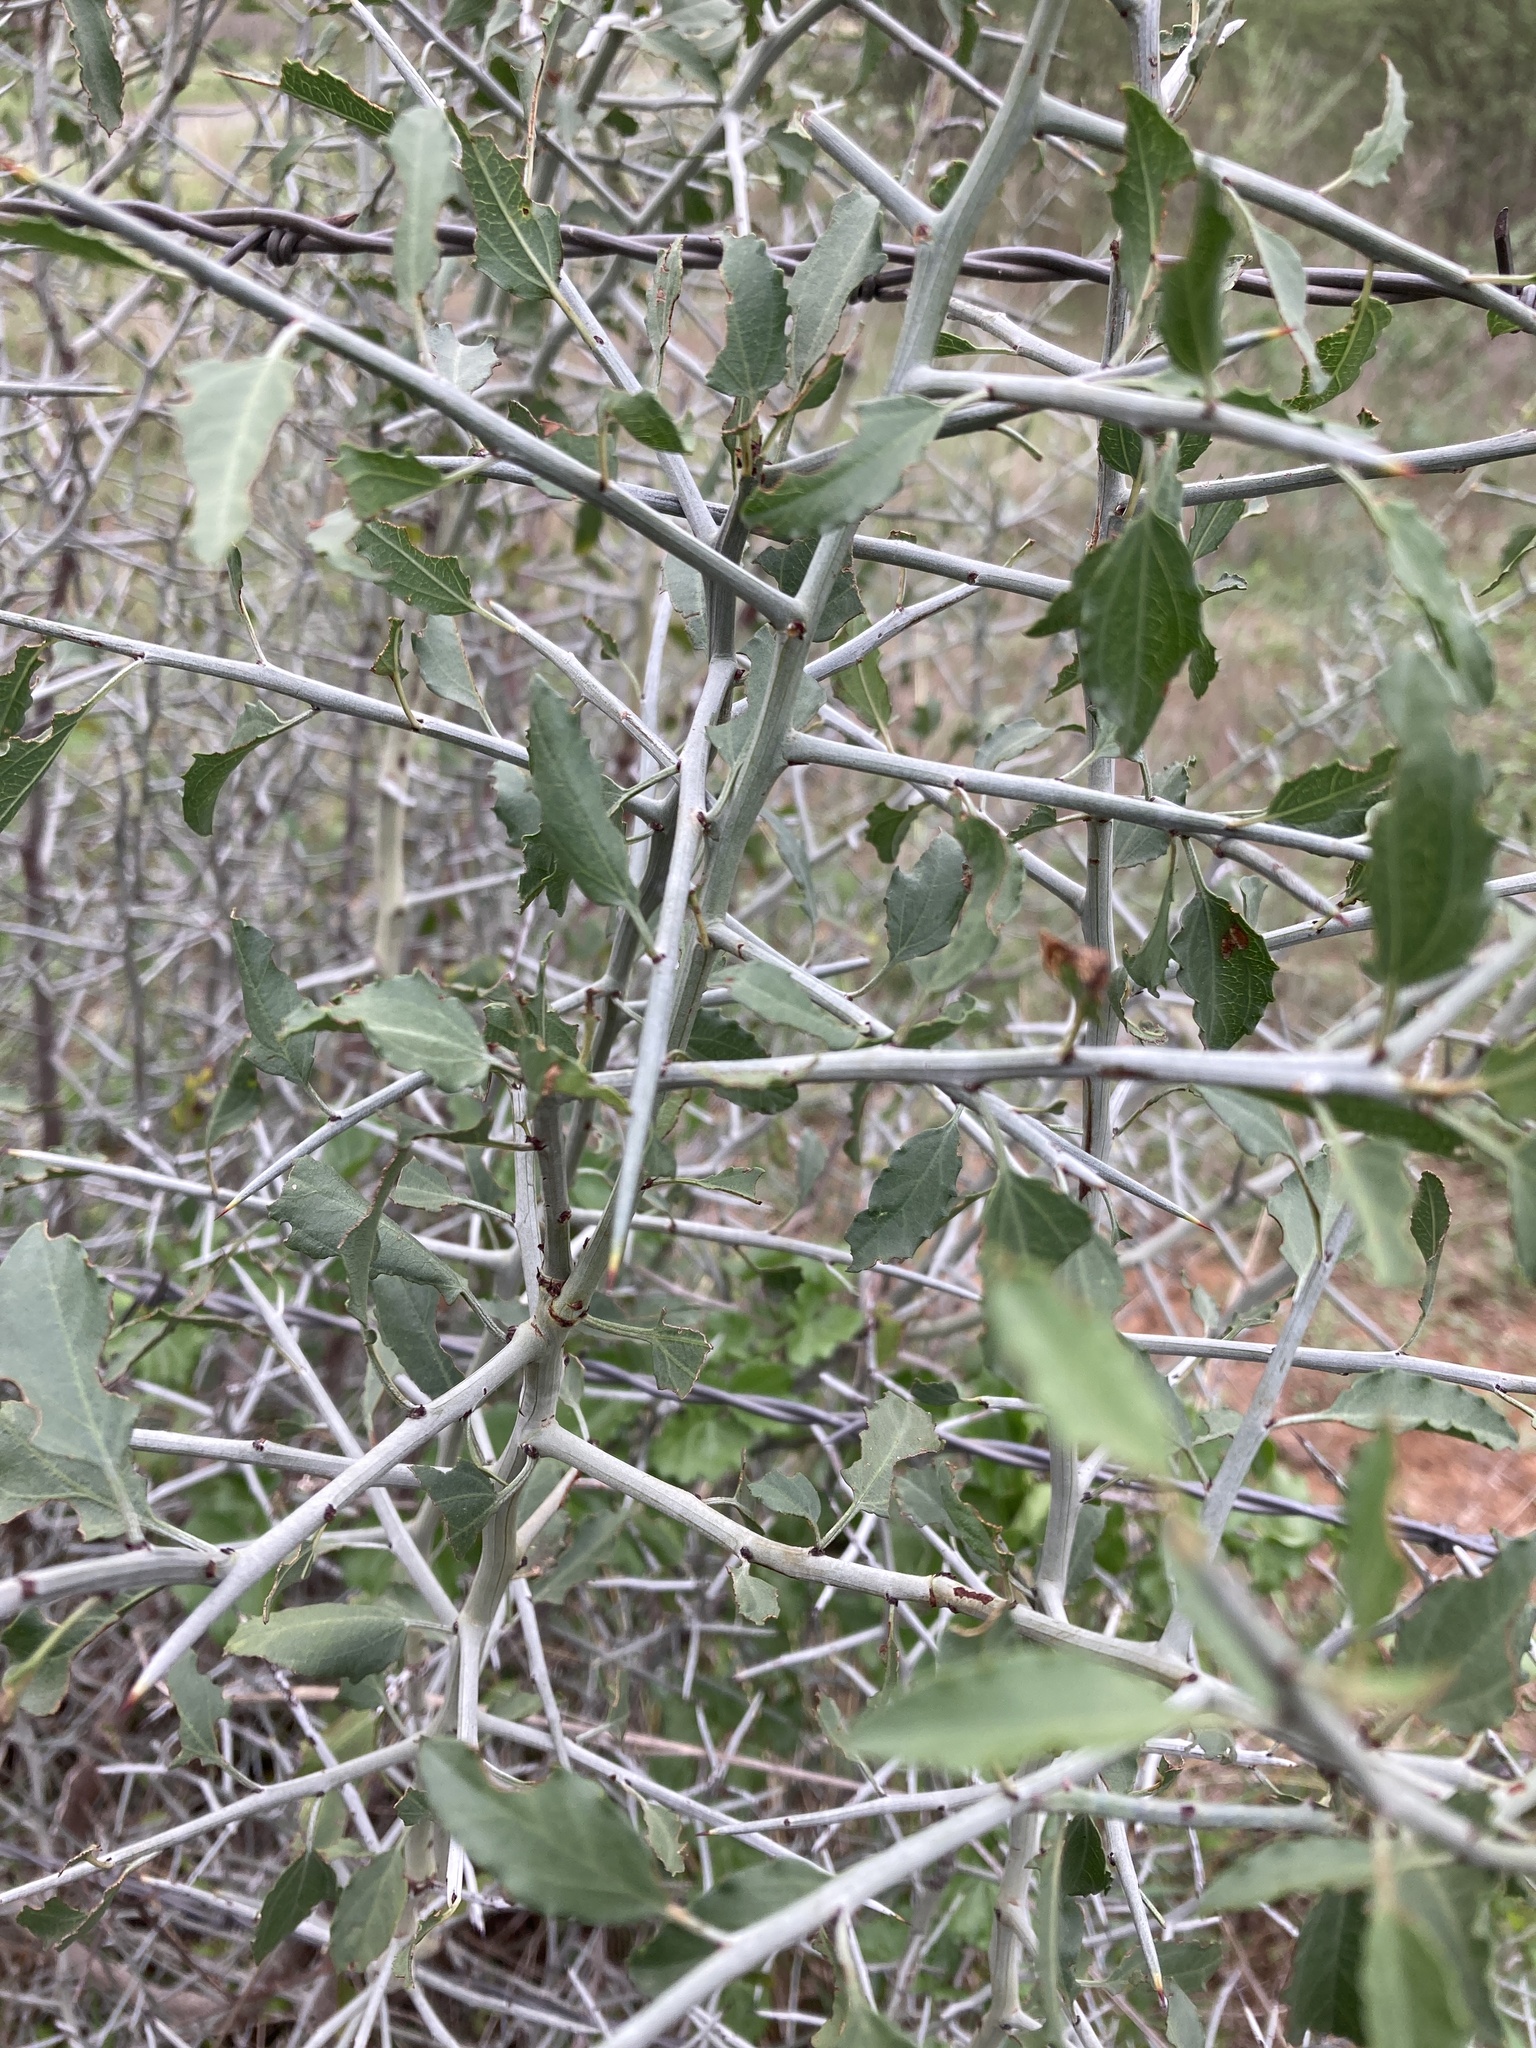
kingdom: Plantae
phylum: Tracheophyta
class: Magnoliopsida
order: Rosales
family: Rhamnaceae
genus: Sarcomphalus
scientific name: Sarcomphalus obtusifolius
